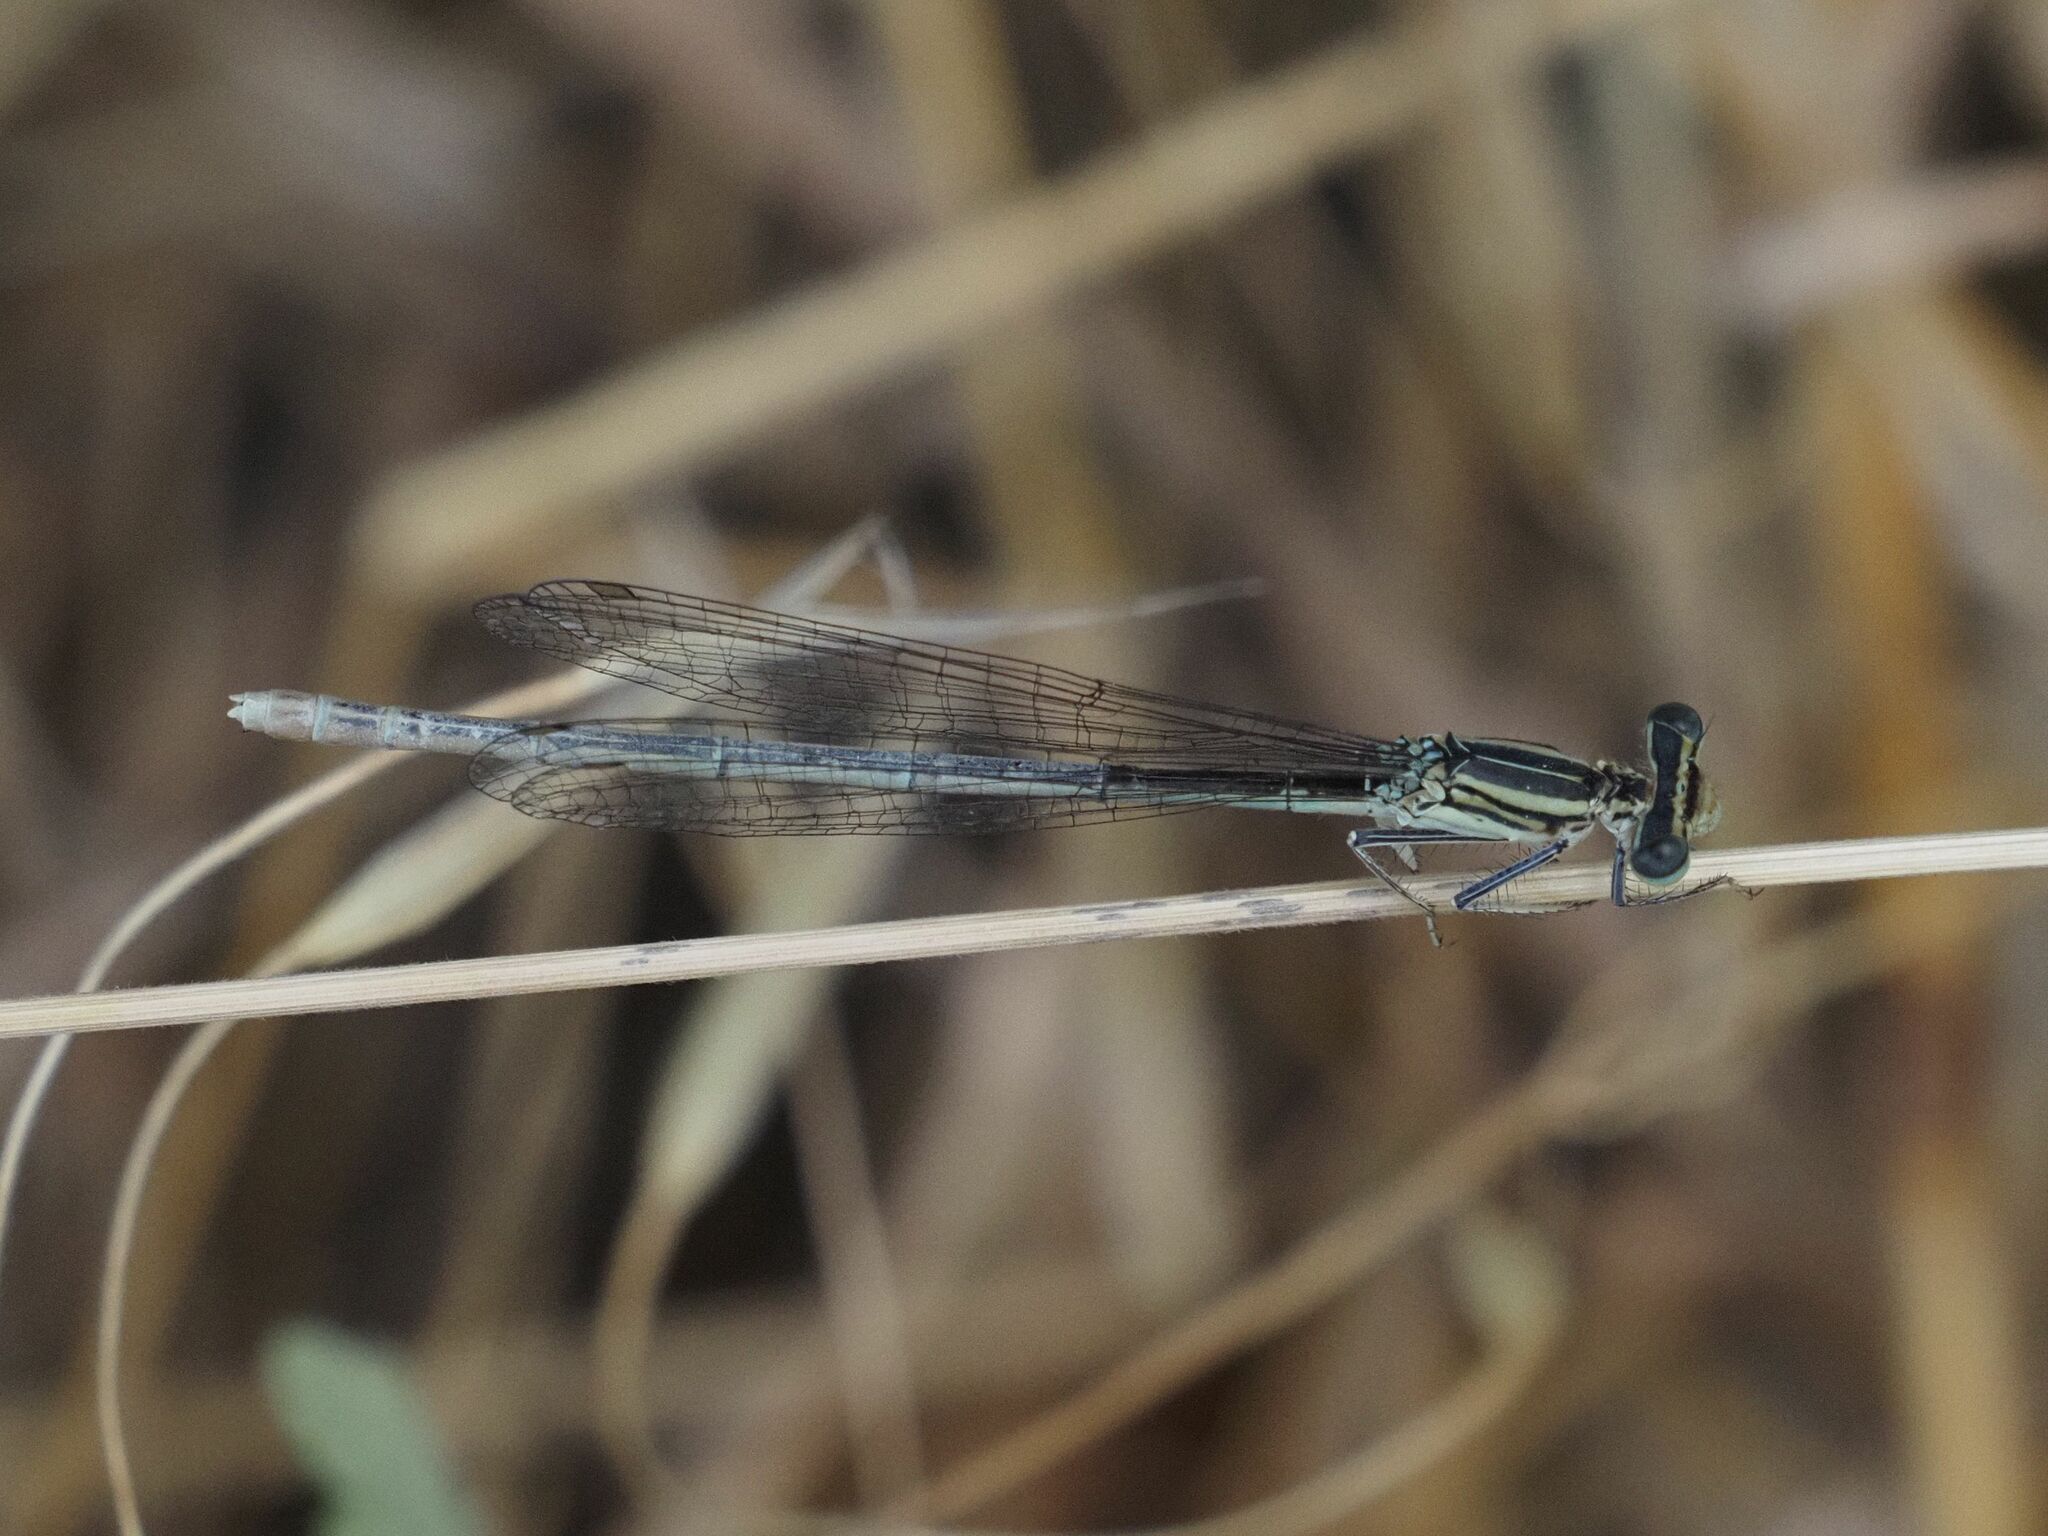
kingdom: Animalia
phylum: Arthropoda
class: Insecta
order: Odonata
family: Platycnemididae
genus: Platycnemis
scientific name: Platycnemis pennipes
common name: White-legged damselfly
